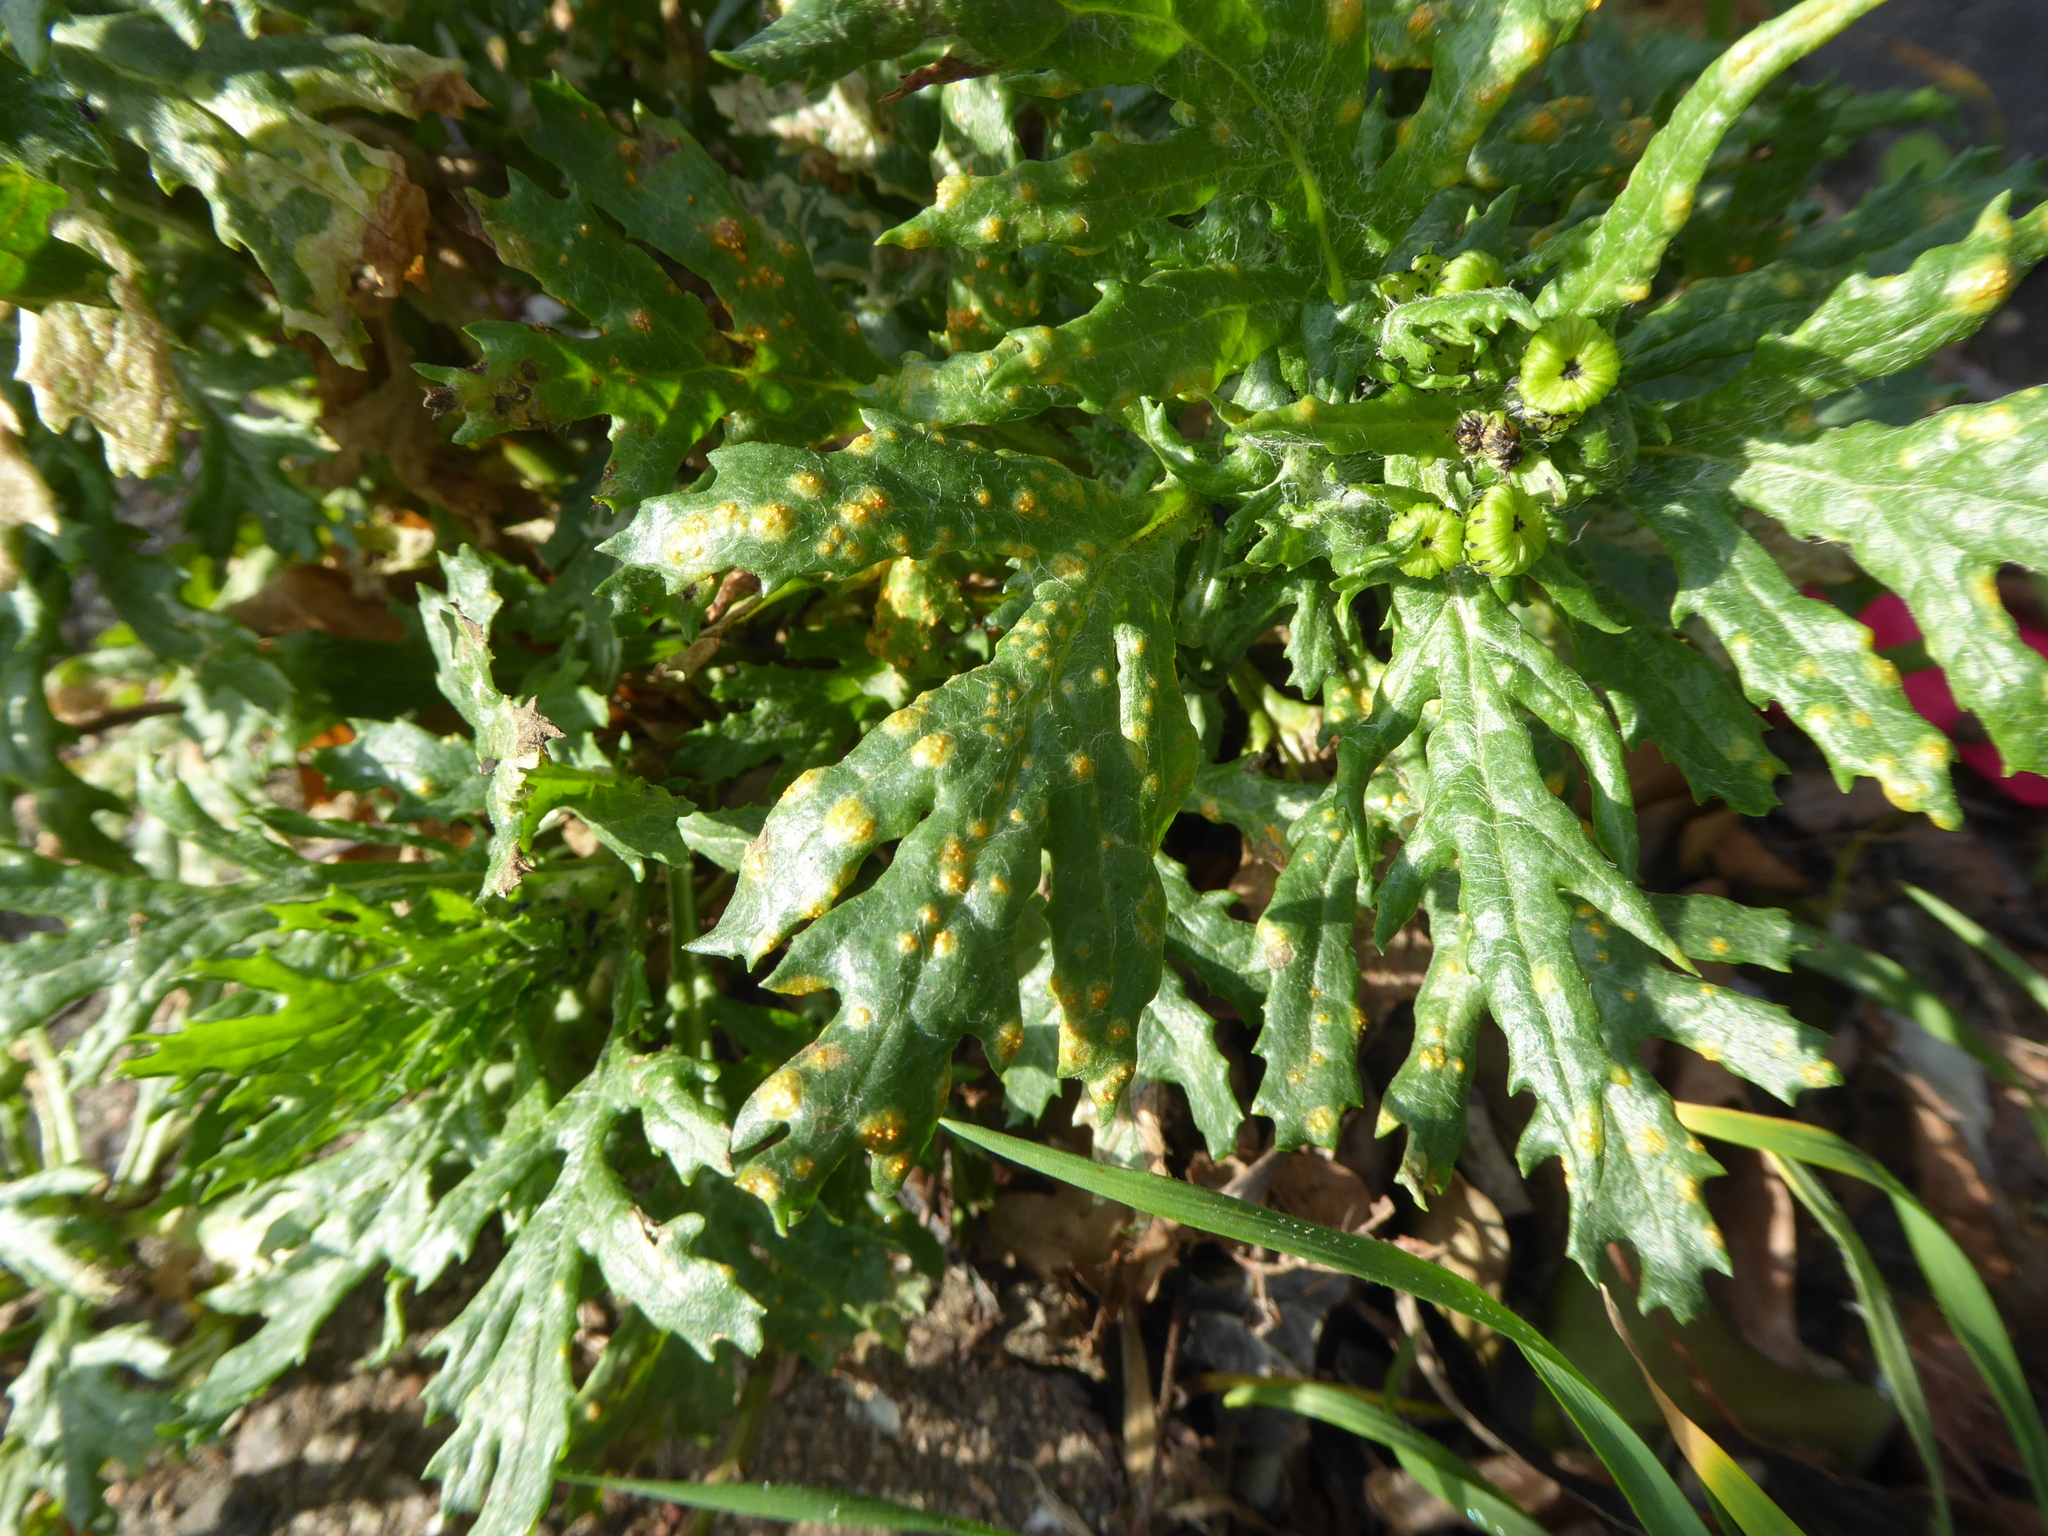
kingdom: Fungi
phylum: Basidiomycota
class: Pucciniomycetes
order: Pucciniales
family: Pucciniaceae
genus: Puccinia
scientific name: Puccinia lagenophorae
